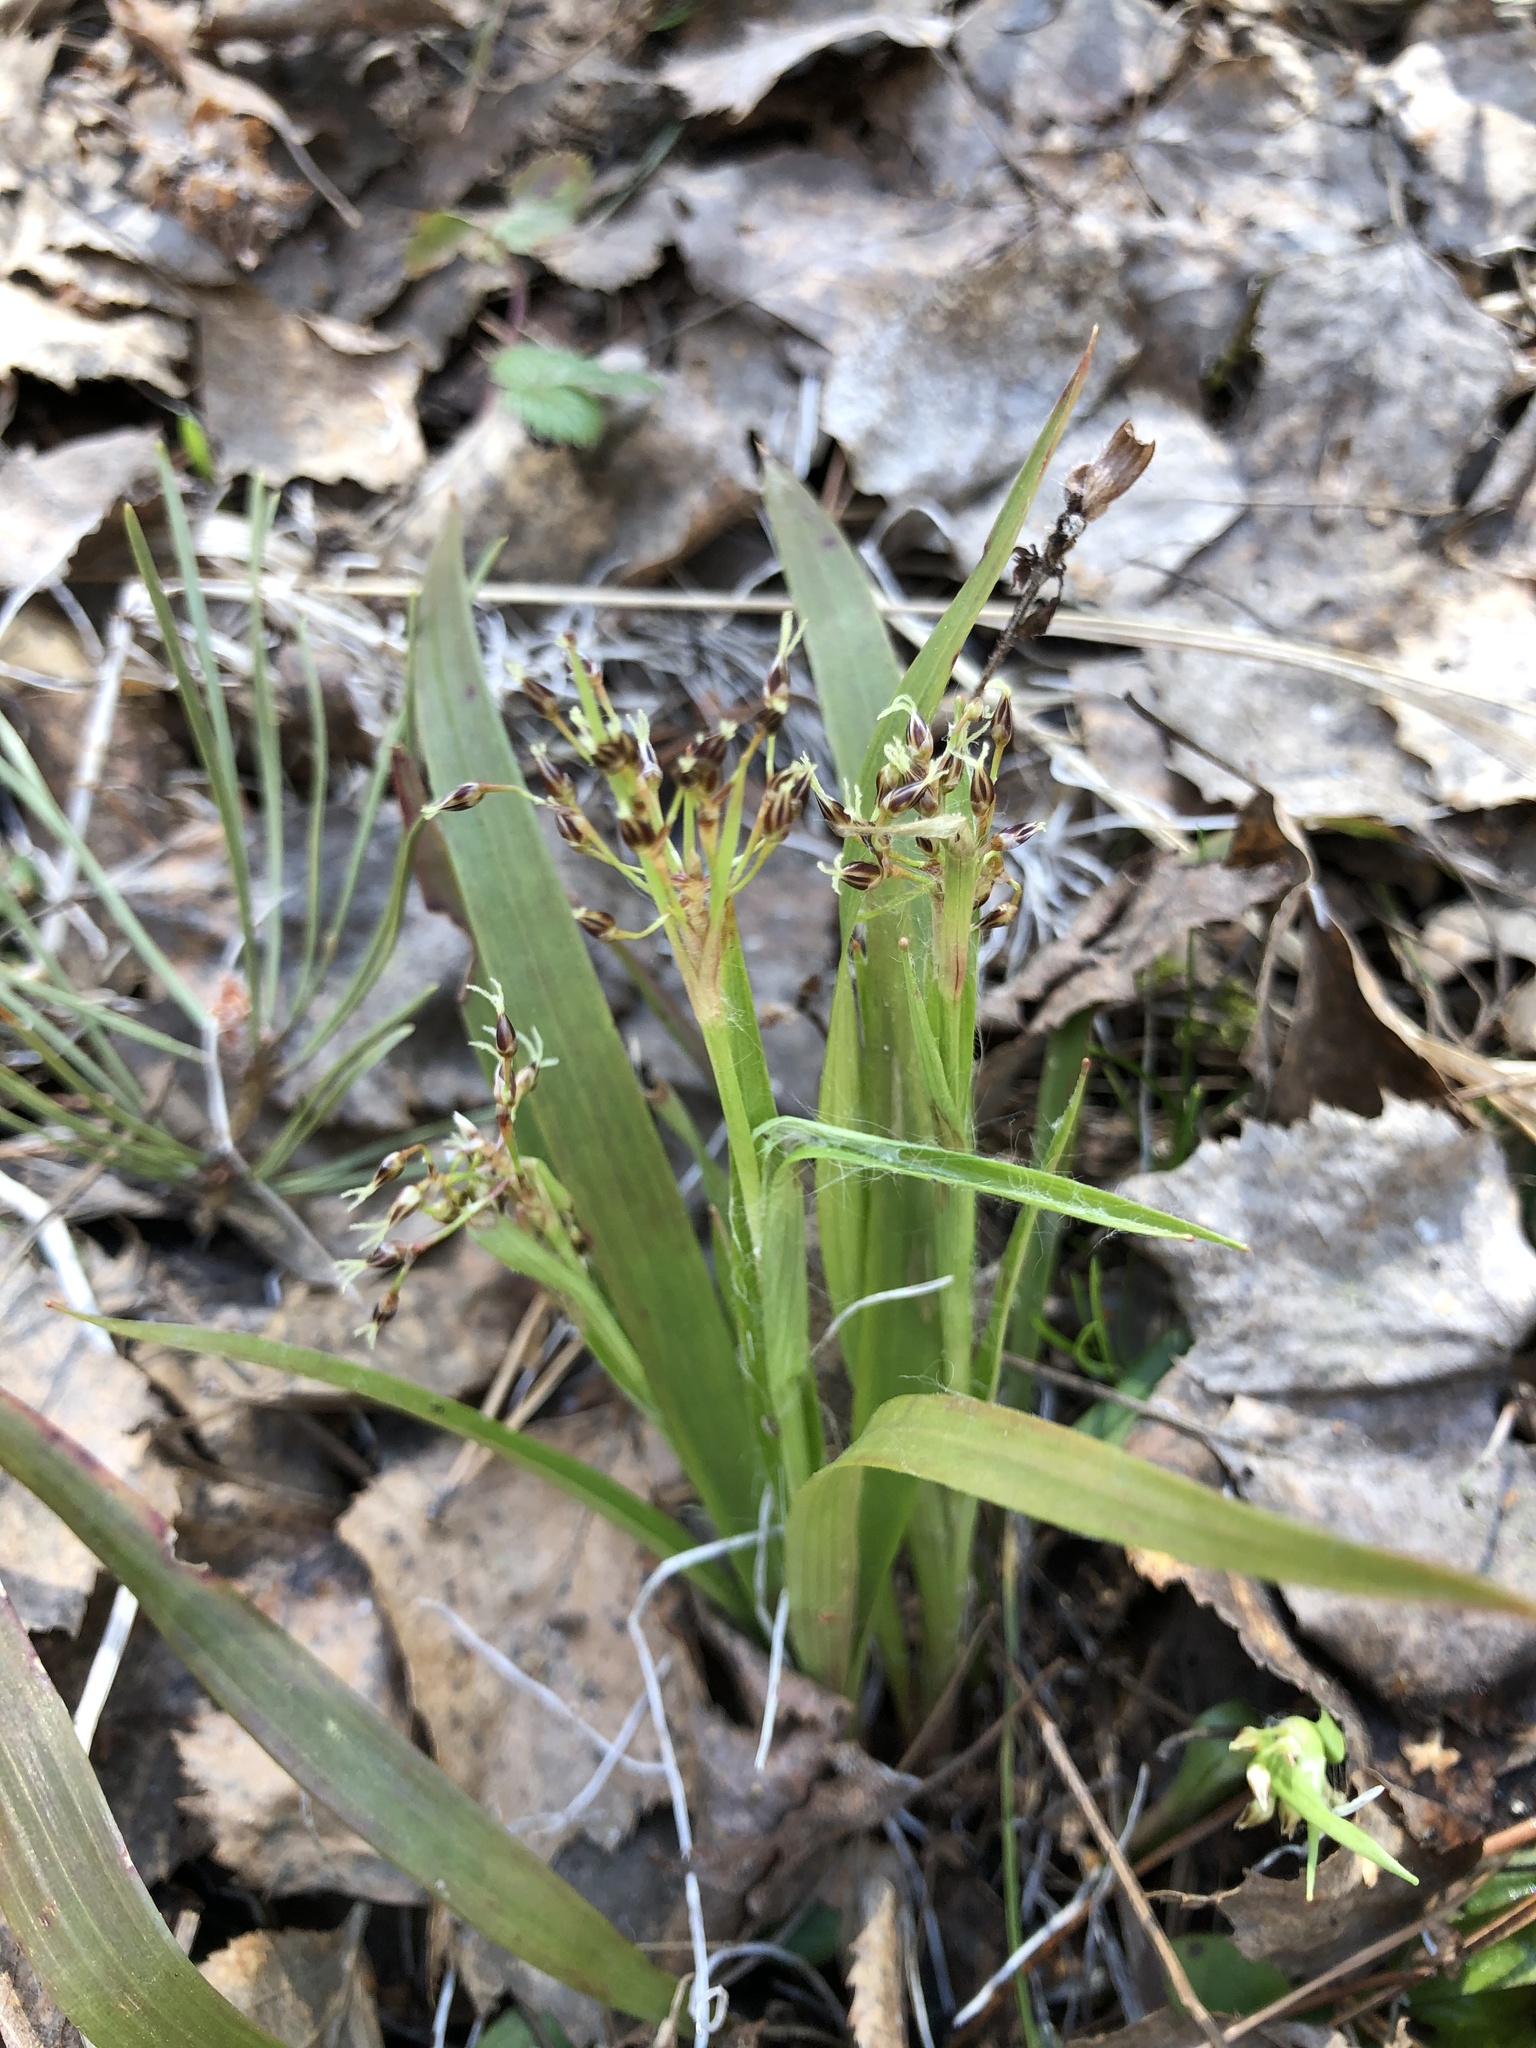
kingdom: Plantae
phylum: Tracheophyta
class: Liliopsida
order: Poales
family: Juncaceae
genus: Luzula
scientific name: Luzula pilosa
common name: Hairy wood-rush
